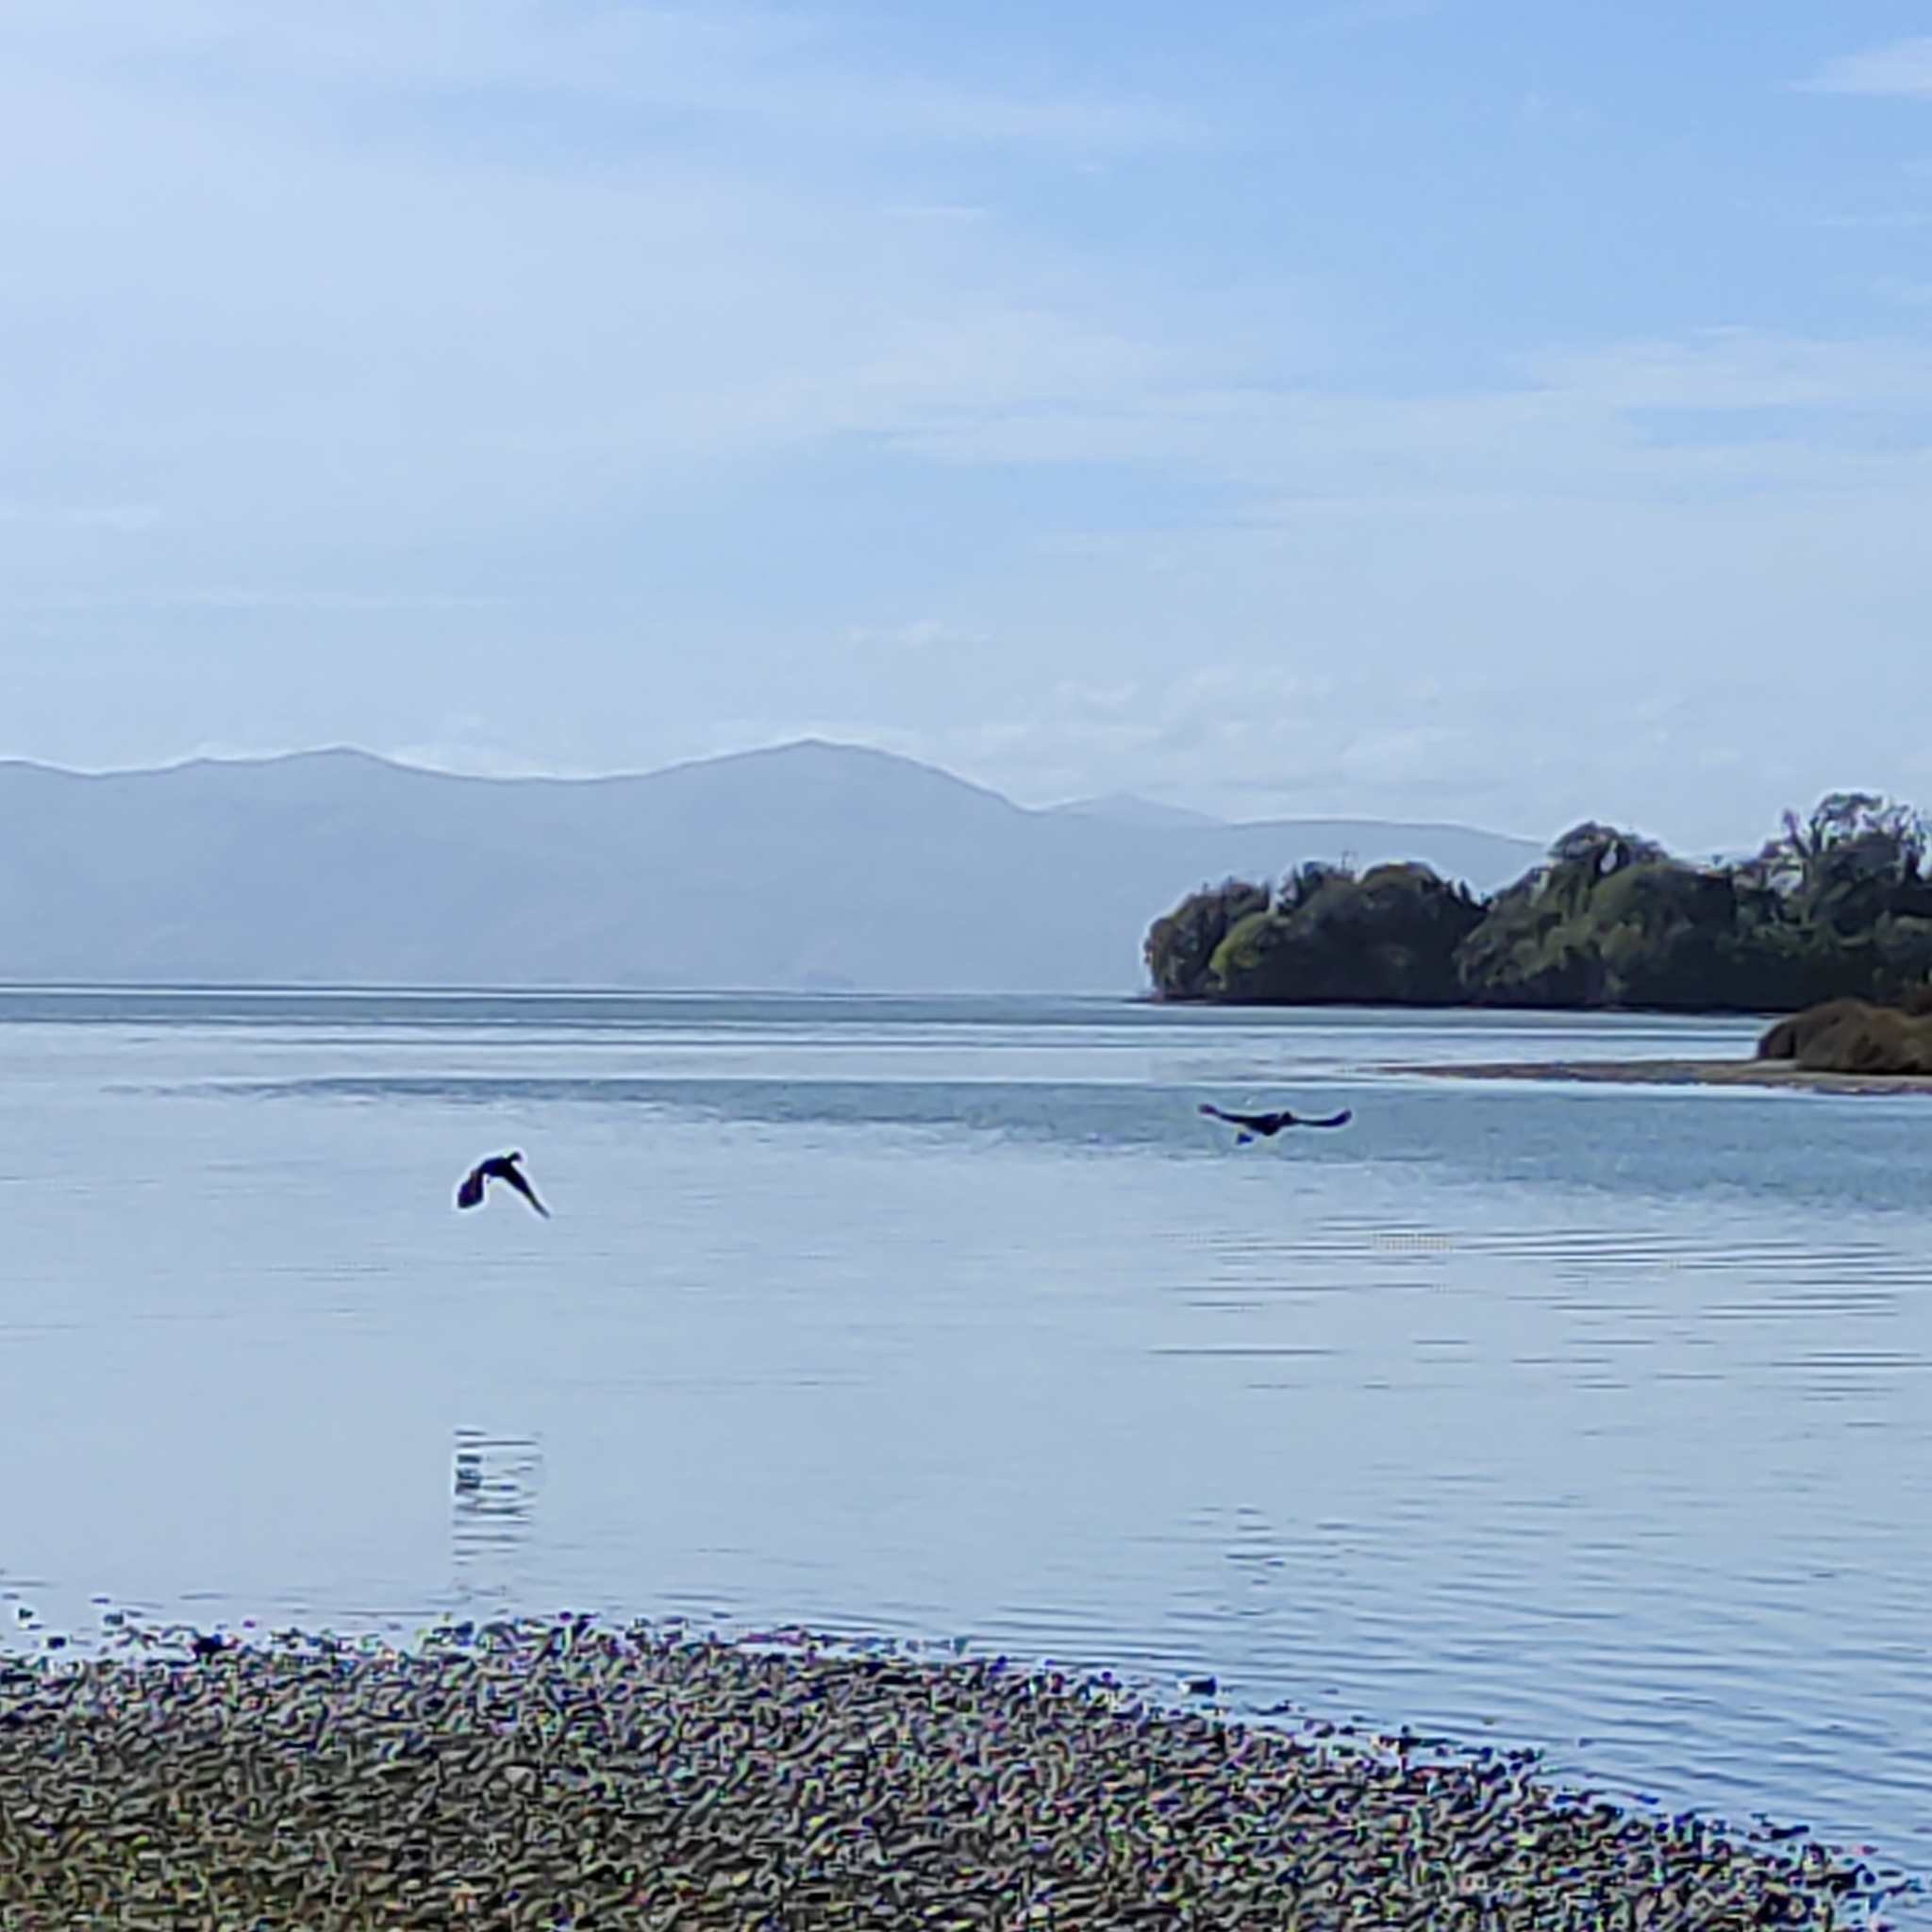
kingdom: Animalia
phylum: Chordata
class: Aves
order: Gruiformes
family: Rallidae
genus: Porphyrio
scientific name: Porphyrio melanotus
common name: Australasian swamphen
